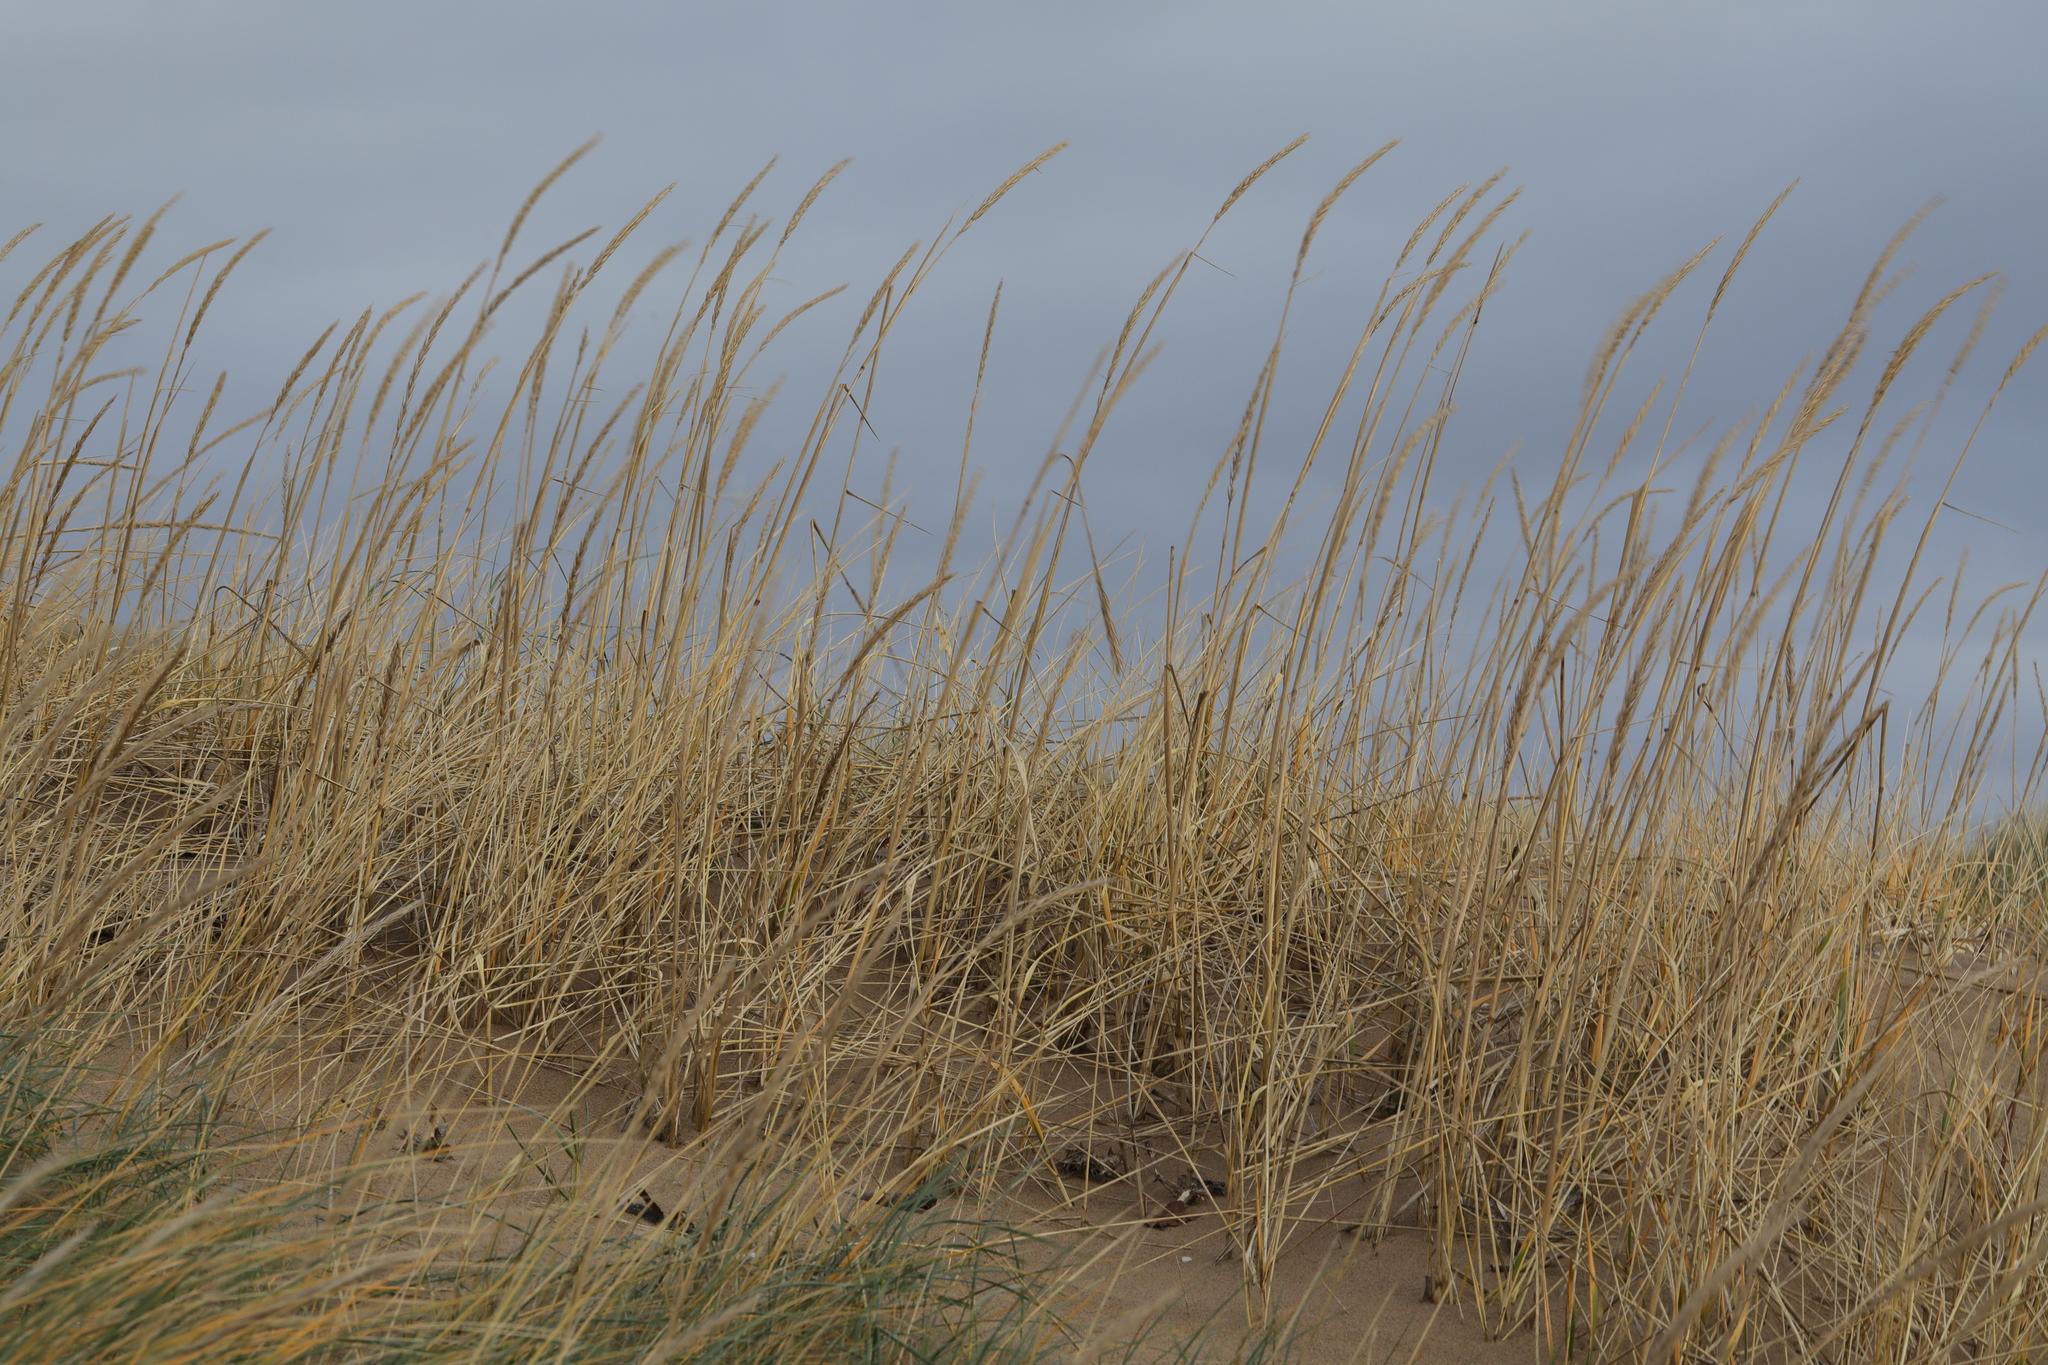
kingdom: Plantae
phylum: Tracheophyta
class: Liliopsida
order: Poales
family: Poaceae
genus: Calamagrostis
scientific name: Calamagrostis arenaria
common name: European beachgrass
